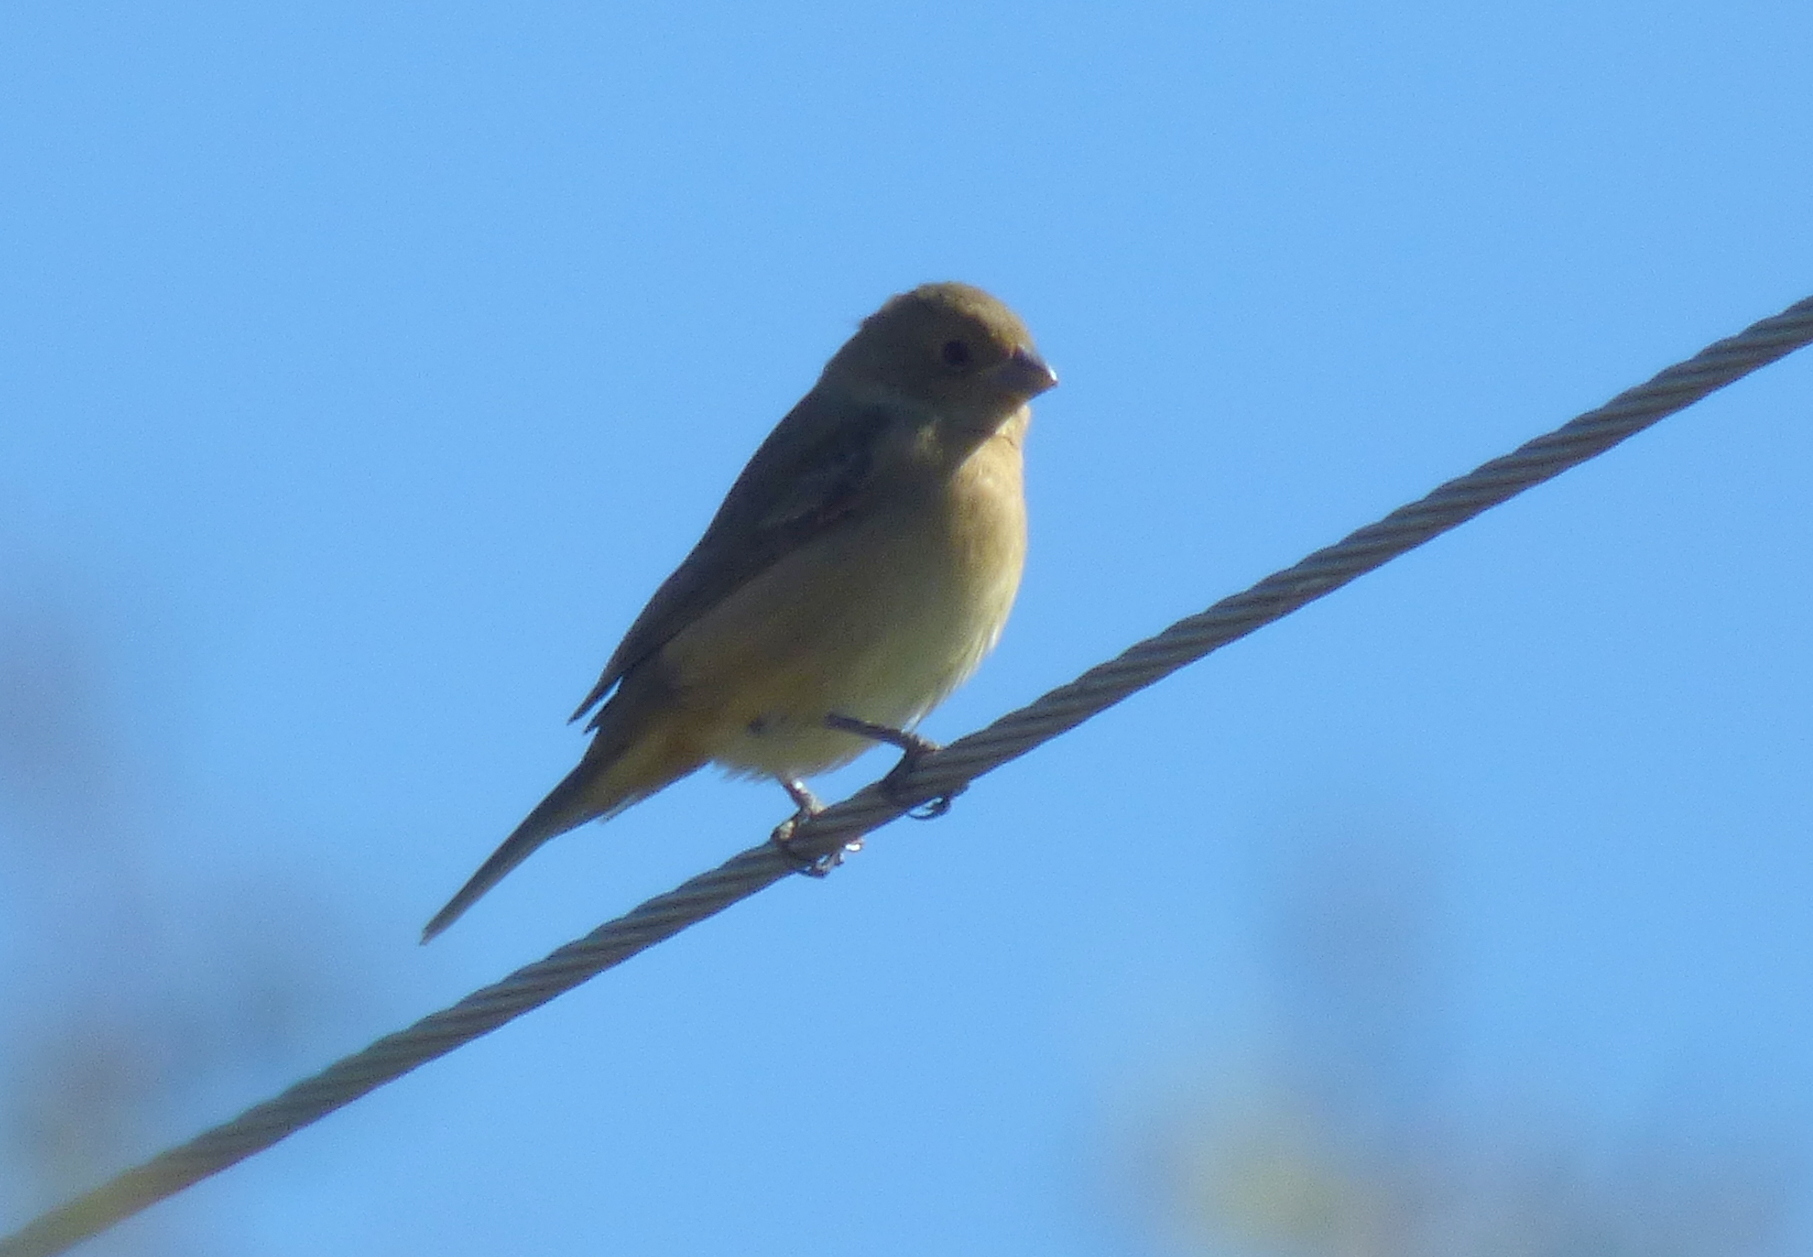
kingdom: Animalia
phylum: Chordata
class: Aves
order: Passeriformes
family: Thraupidae
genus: Sporophila
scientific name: Sporophila caerulescens
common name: Double-collared seedeater
